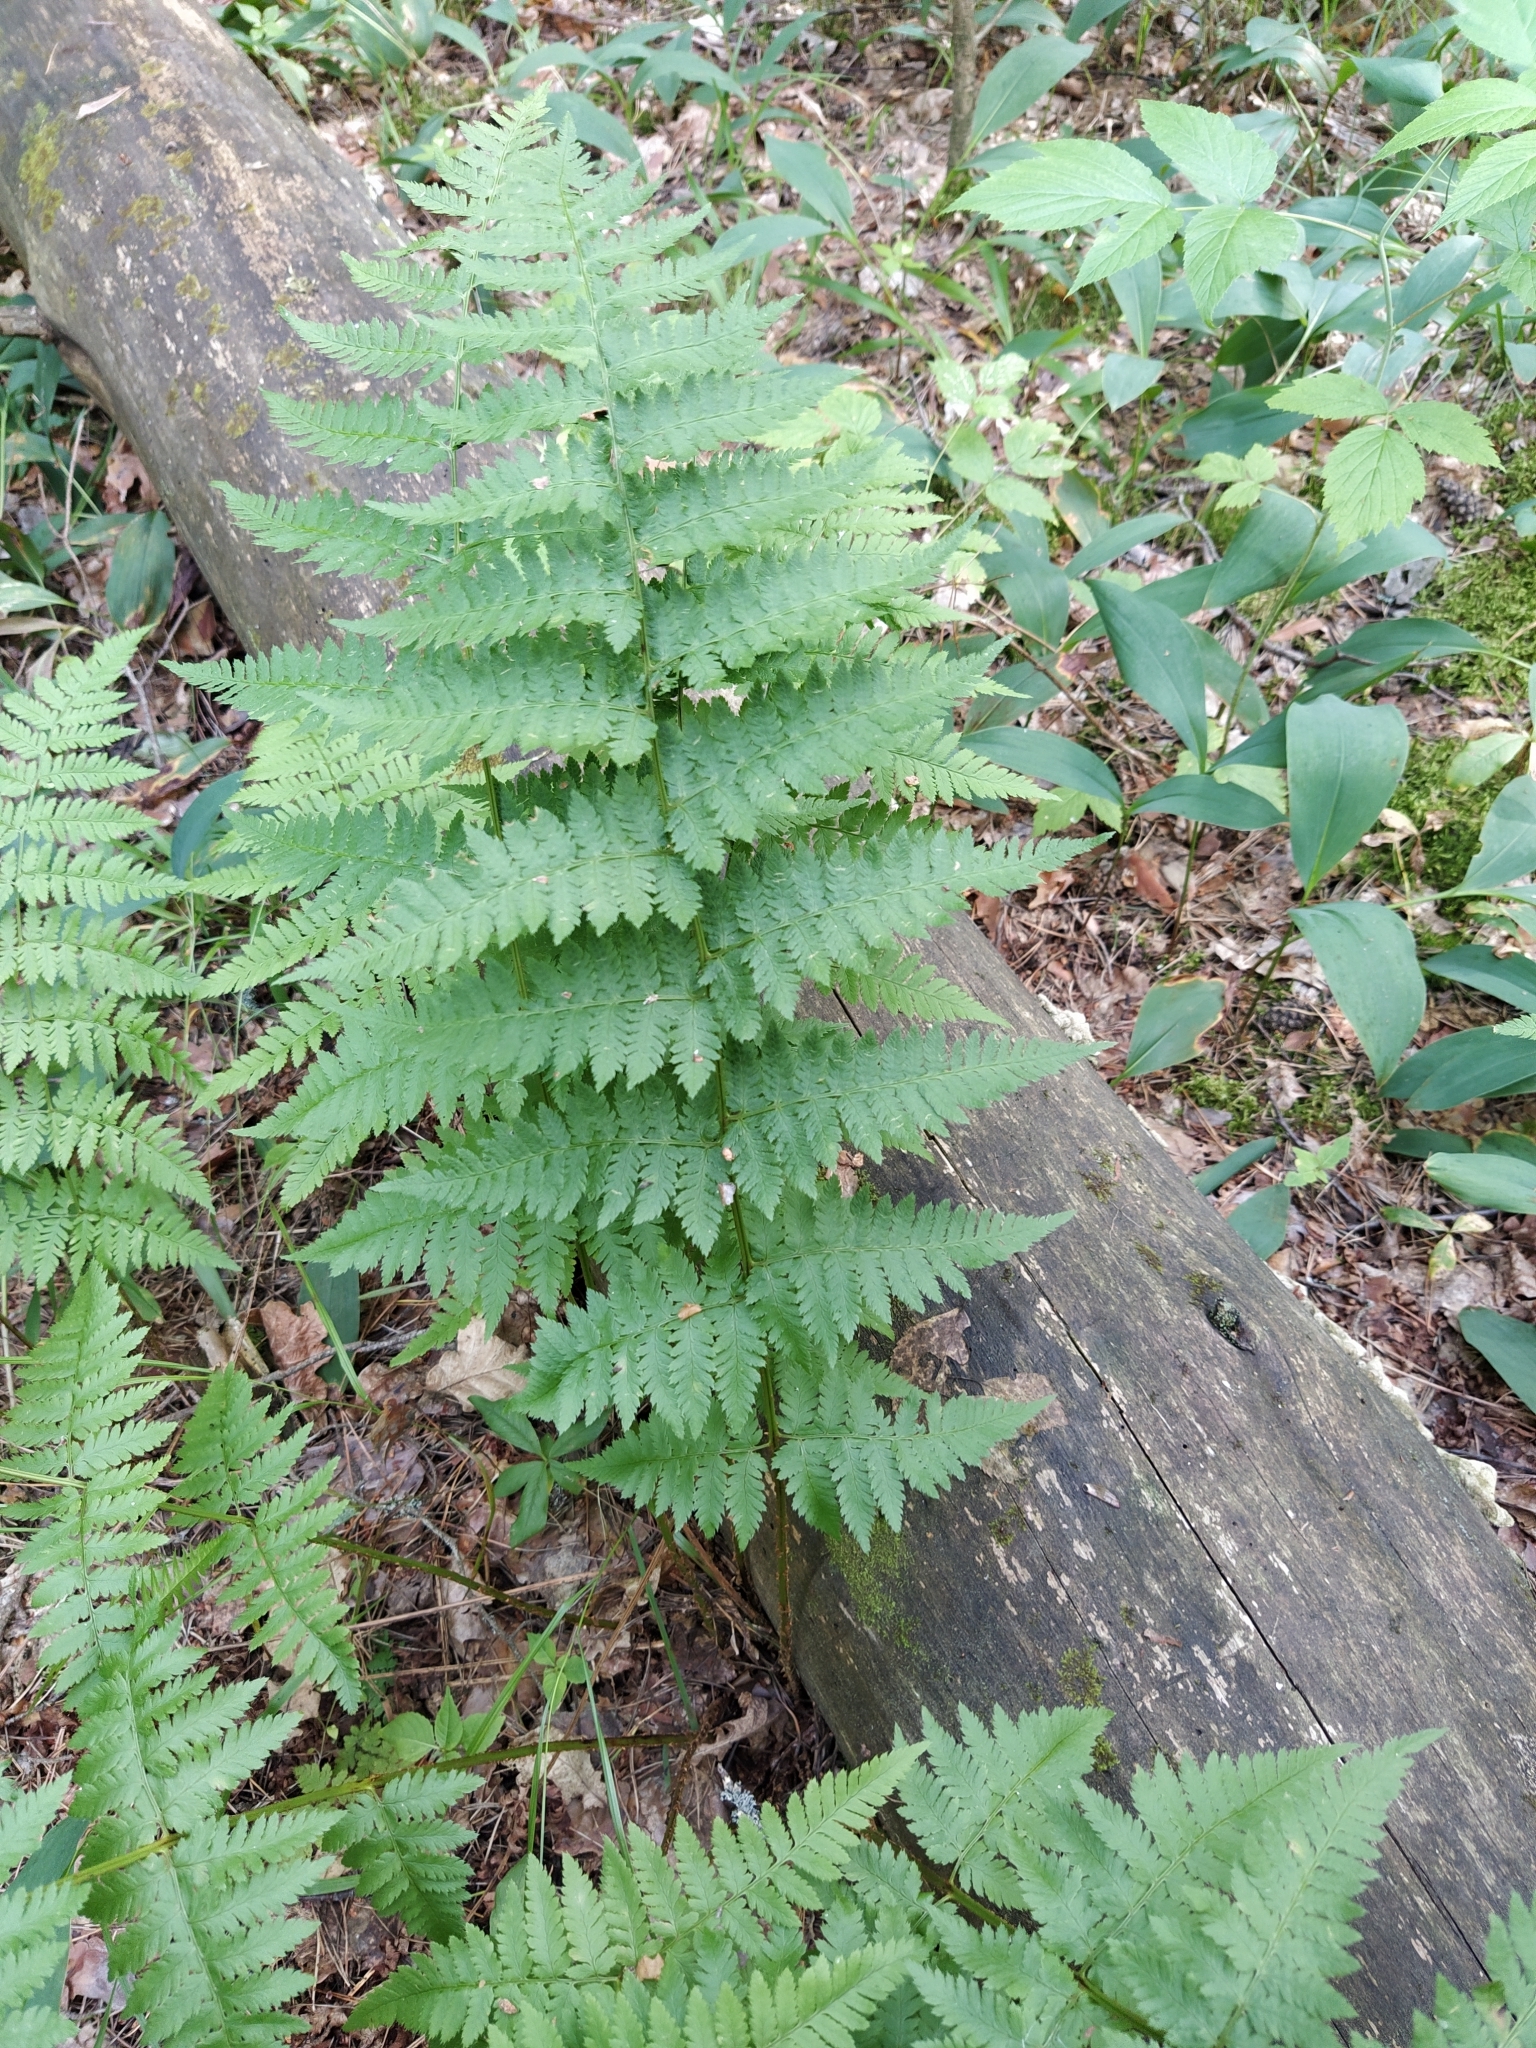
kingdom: Plantae
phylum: Tracheophyta
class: Polypodiopsida
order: Polypodiales
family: Dryopteridaceae
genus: Dryopteris
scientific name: Dryopteris carthusiana
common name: Narrow buckler-fern
